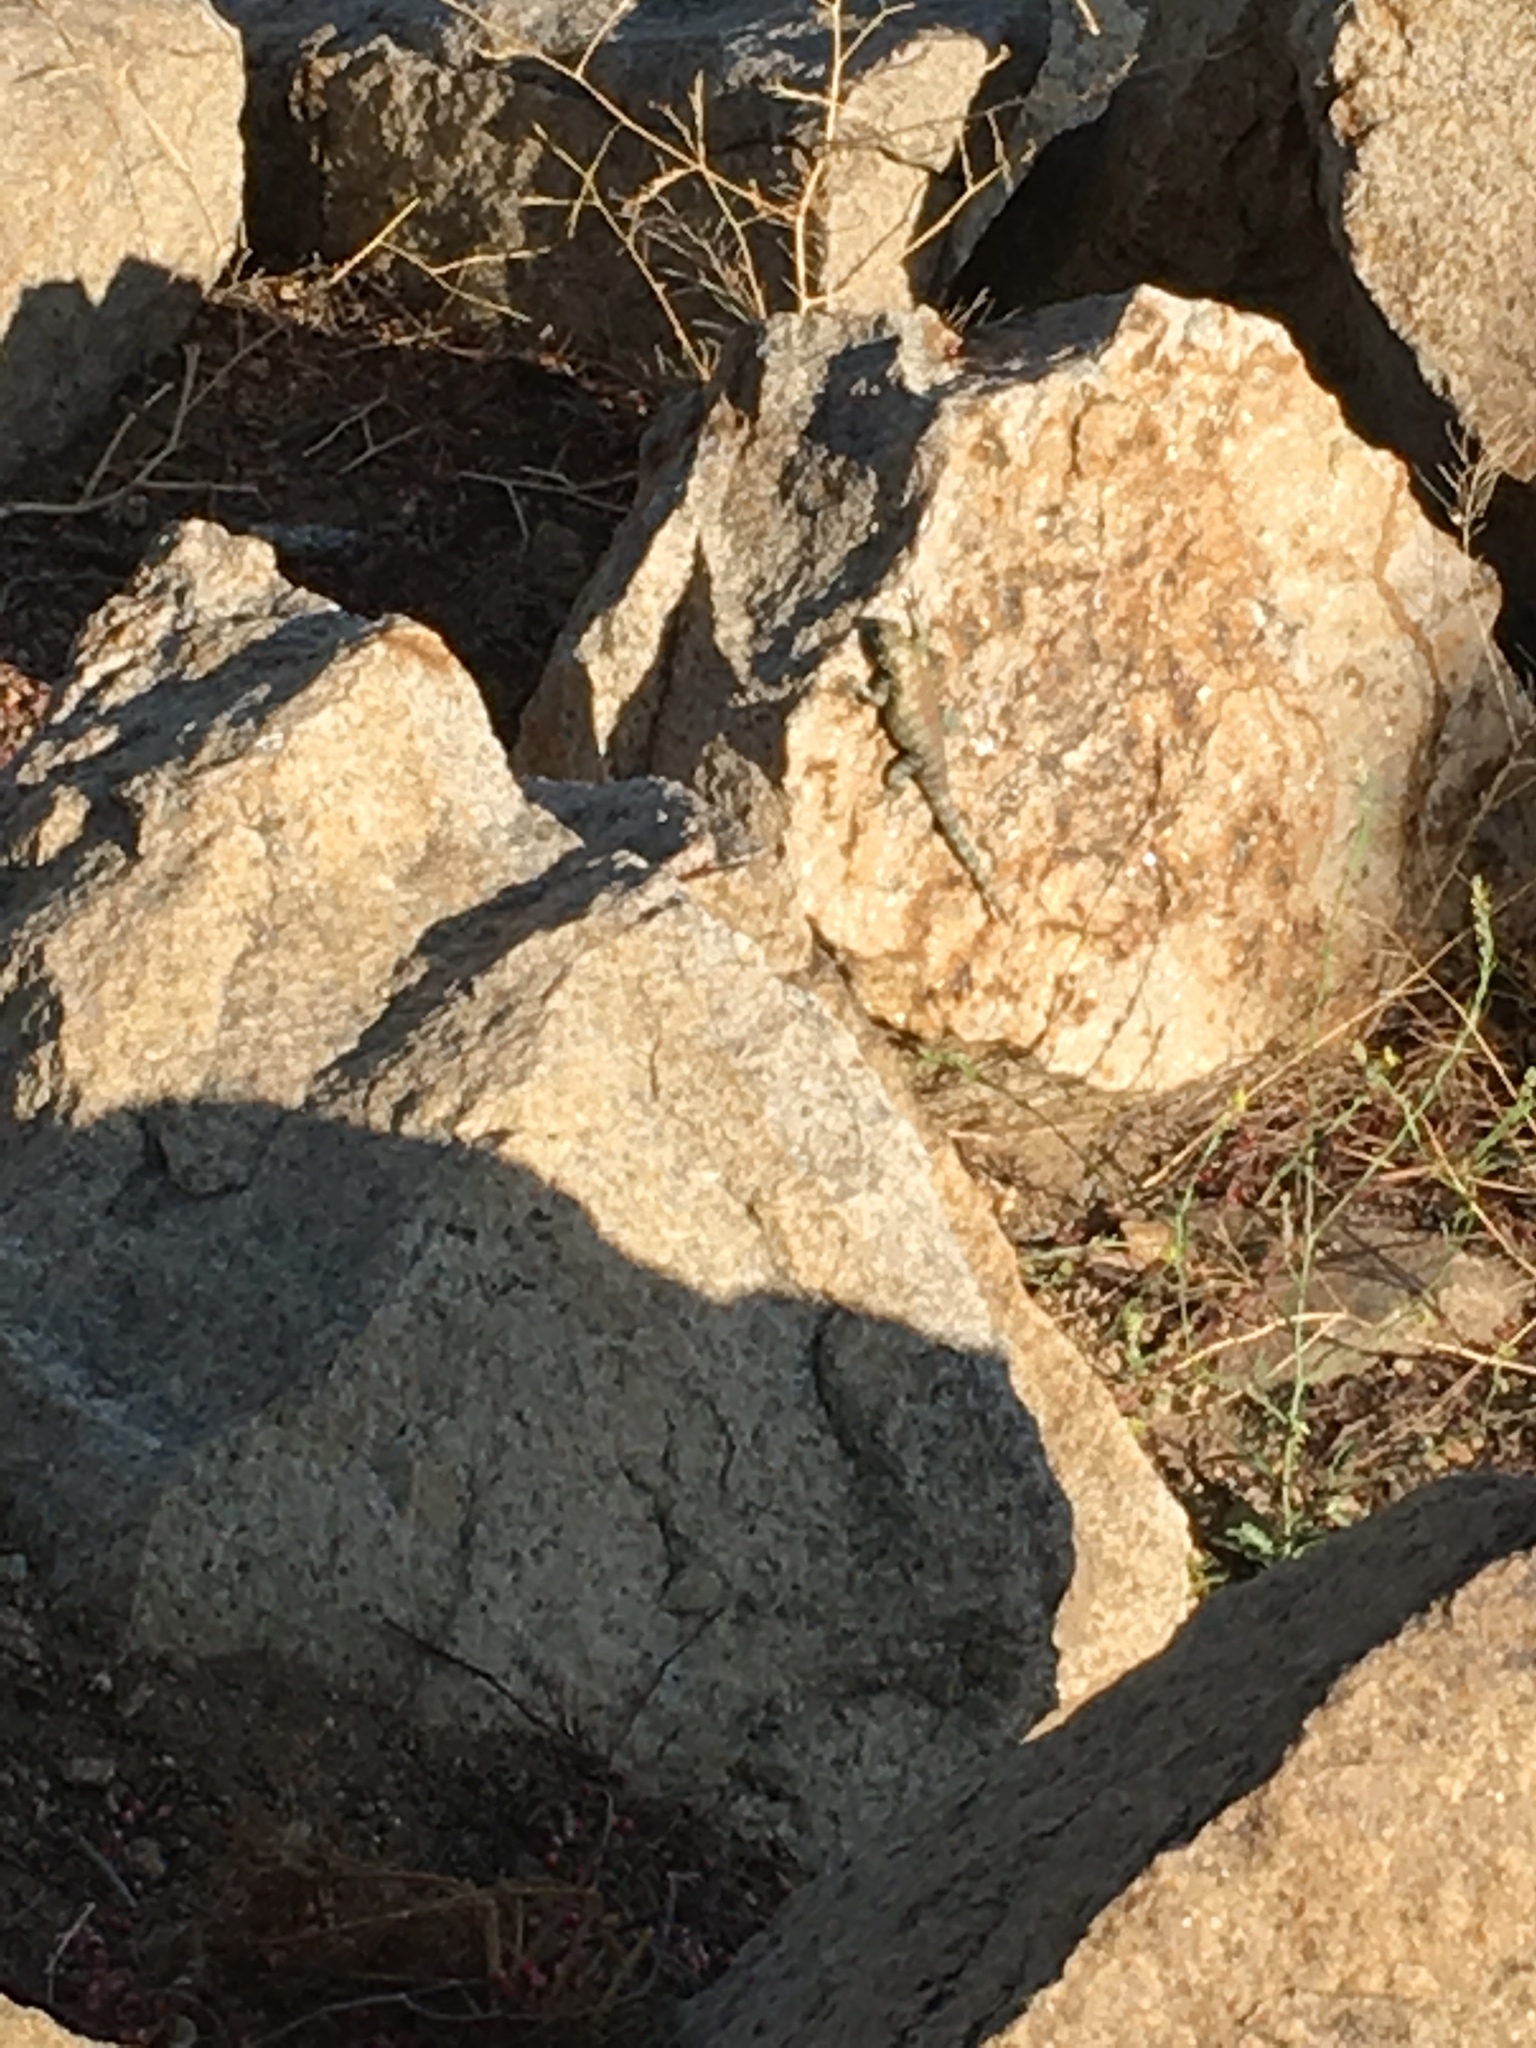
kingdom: Animalia
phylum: Chordata
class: Squamata
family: Phrynosomatidae
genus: Sceloporus
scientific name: Sceloporus orcutti
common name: Granite spiny lizard
